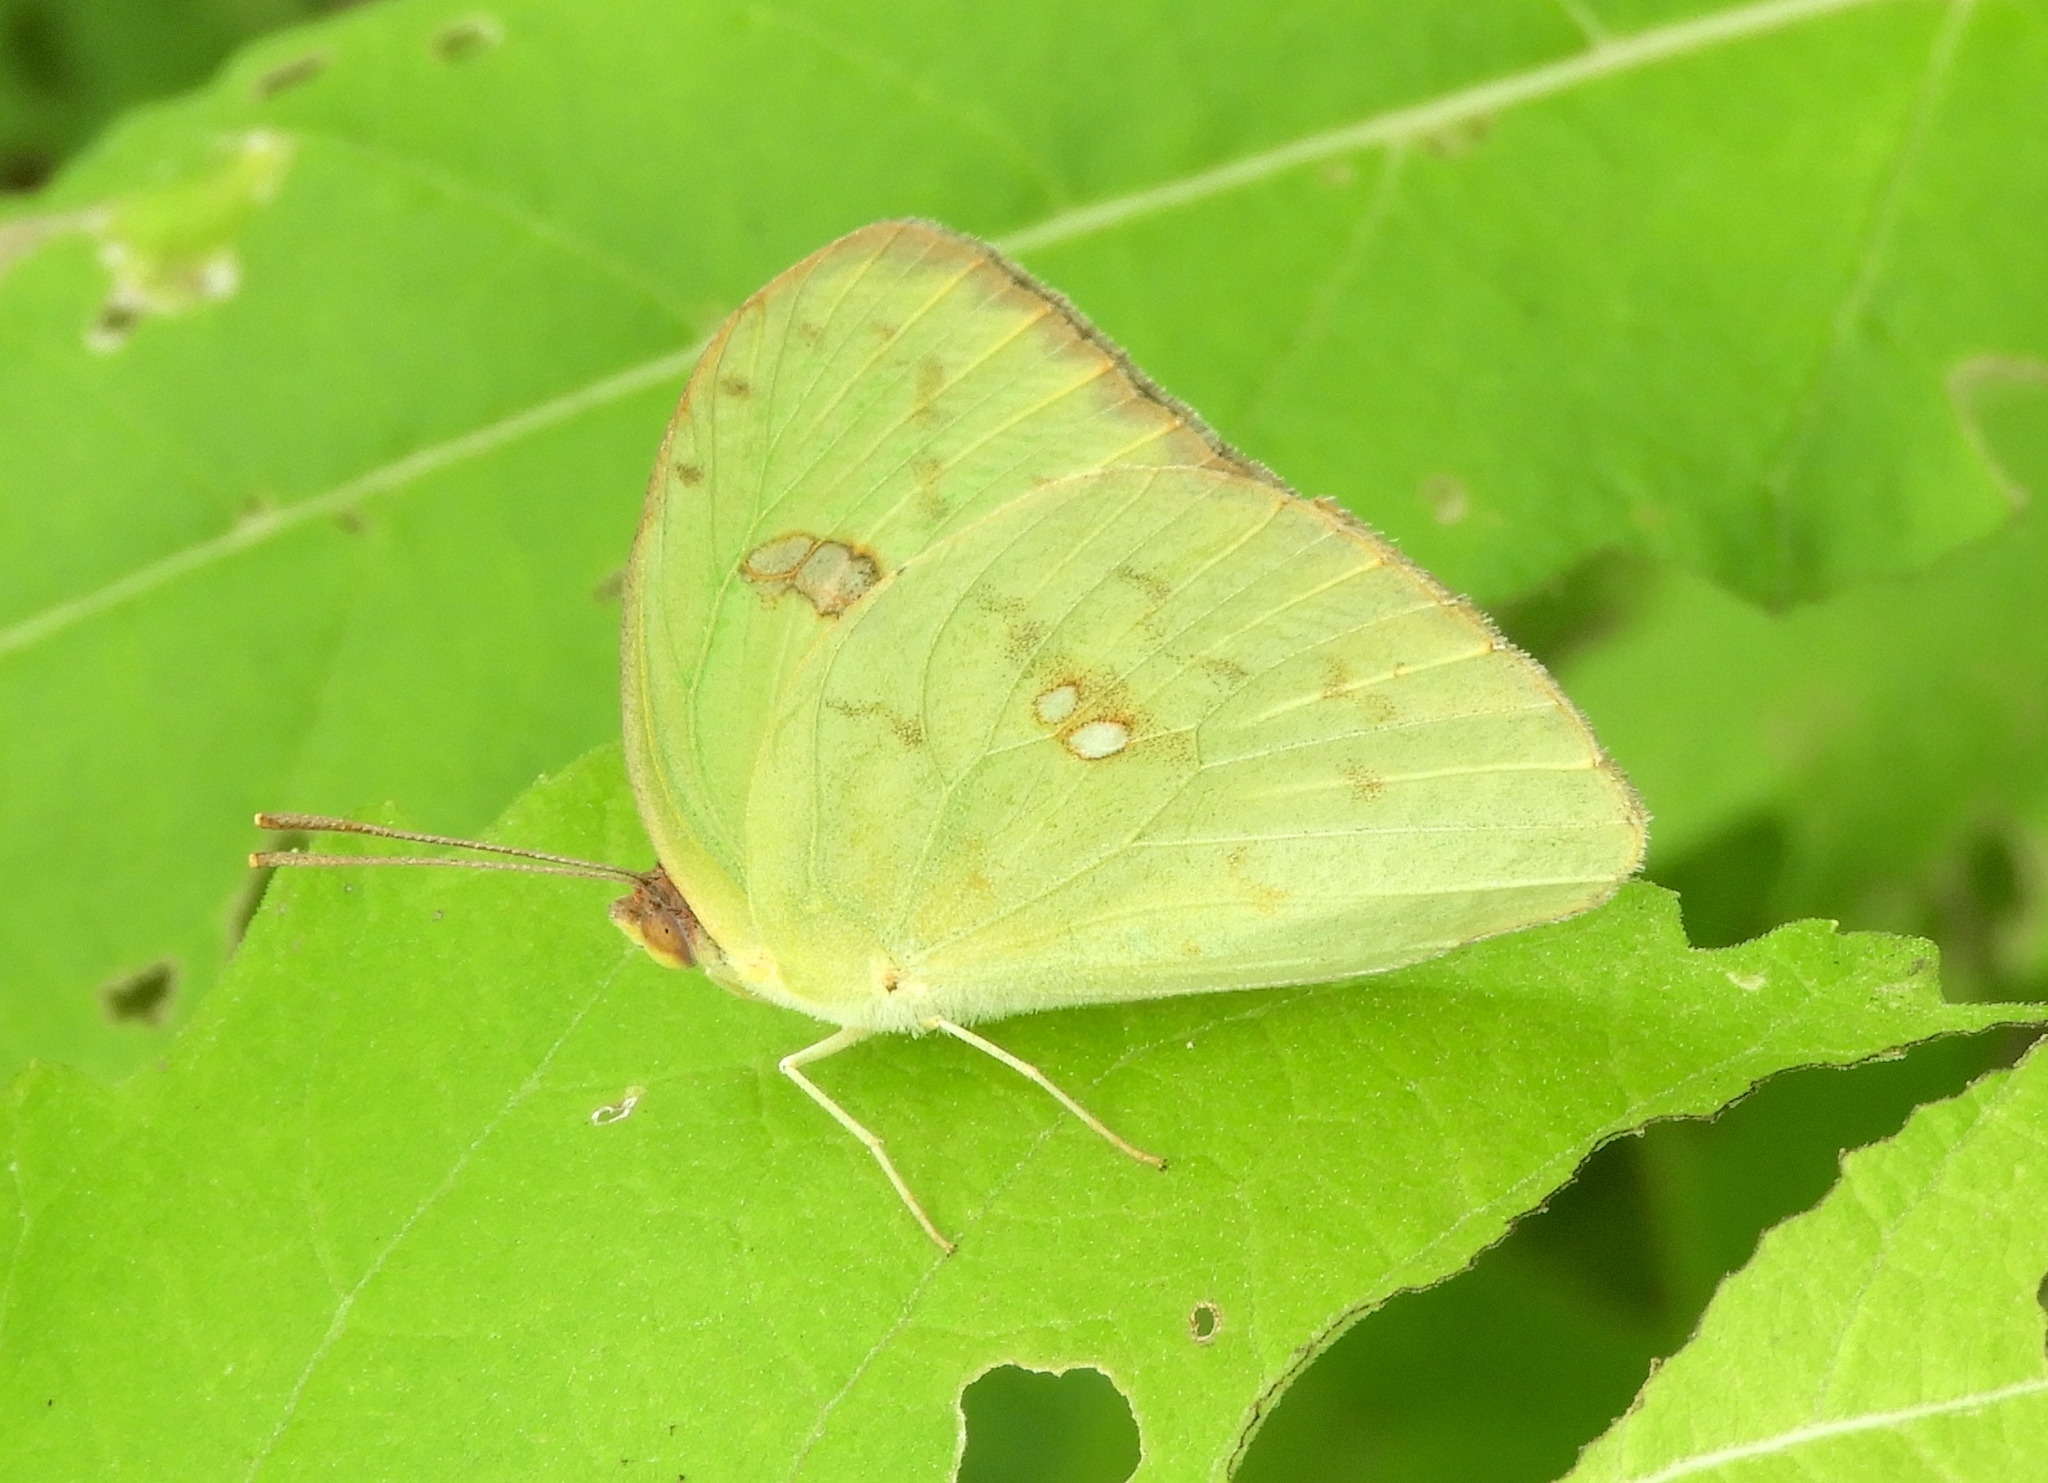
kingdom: Animalia
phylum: Arthropoda
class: Insecta
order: Lepidoptera
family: Pieridae
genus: Phoebis
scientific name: Phoebis sennae
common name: Cloudless sulphur
